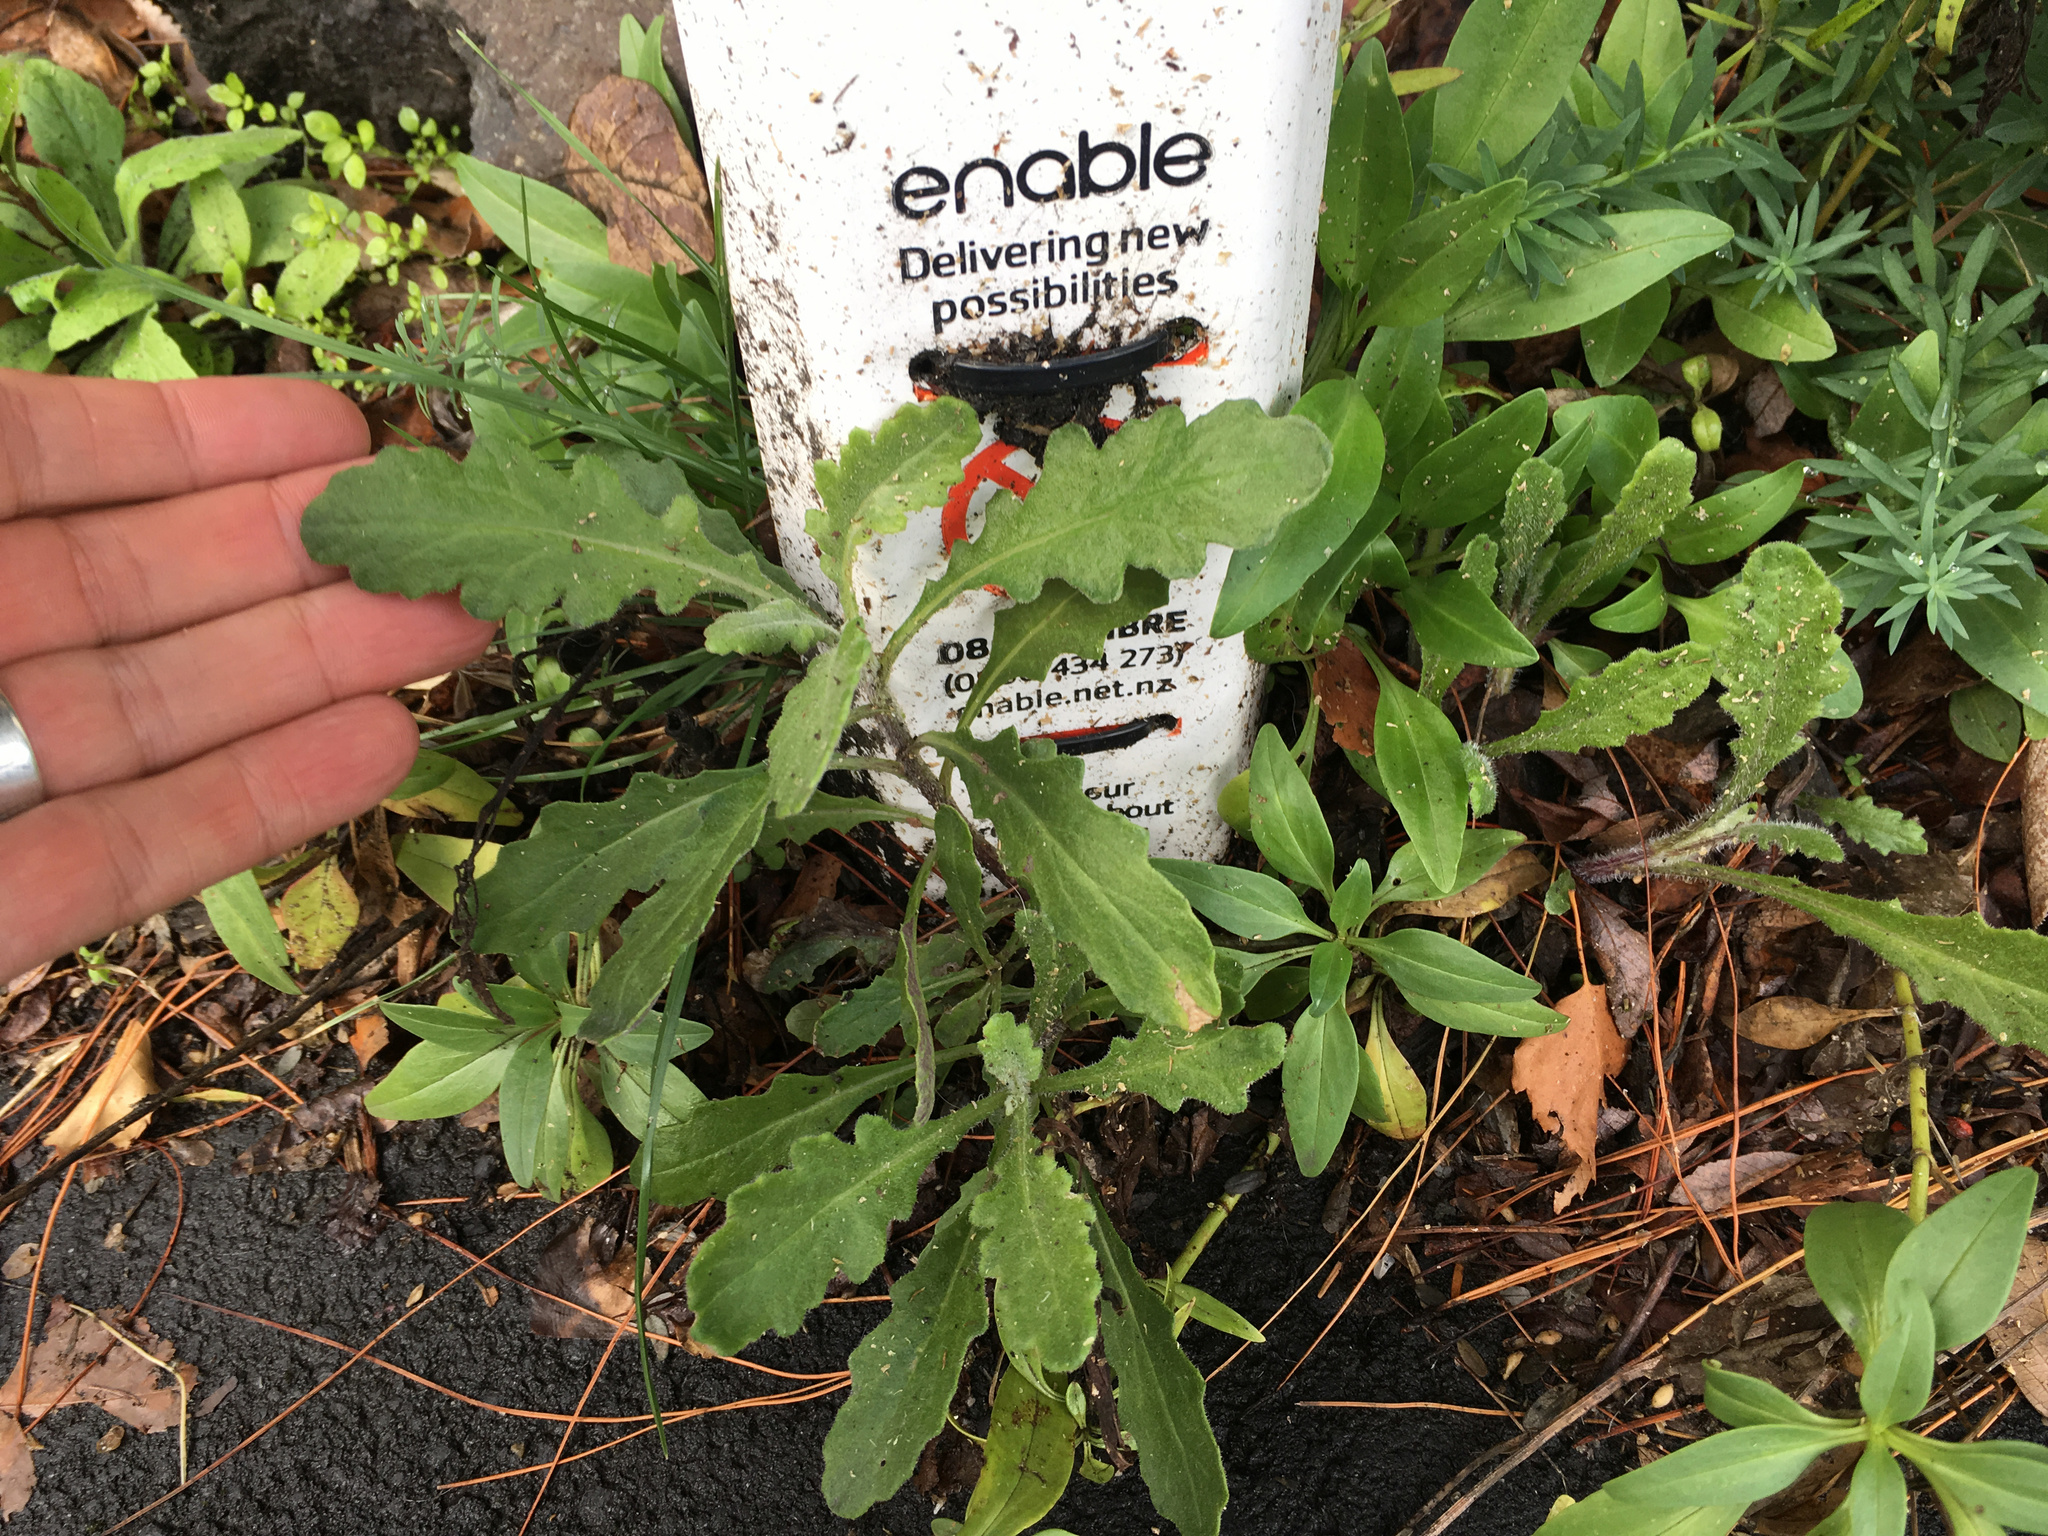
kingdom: Plantae
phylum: Tracheophyta
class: Magnoliopsida
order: Asterales
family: Asteraceae
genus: Senecio
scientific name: Senecio glomeratus
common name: Cutleaf burnweed
